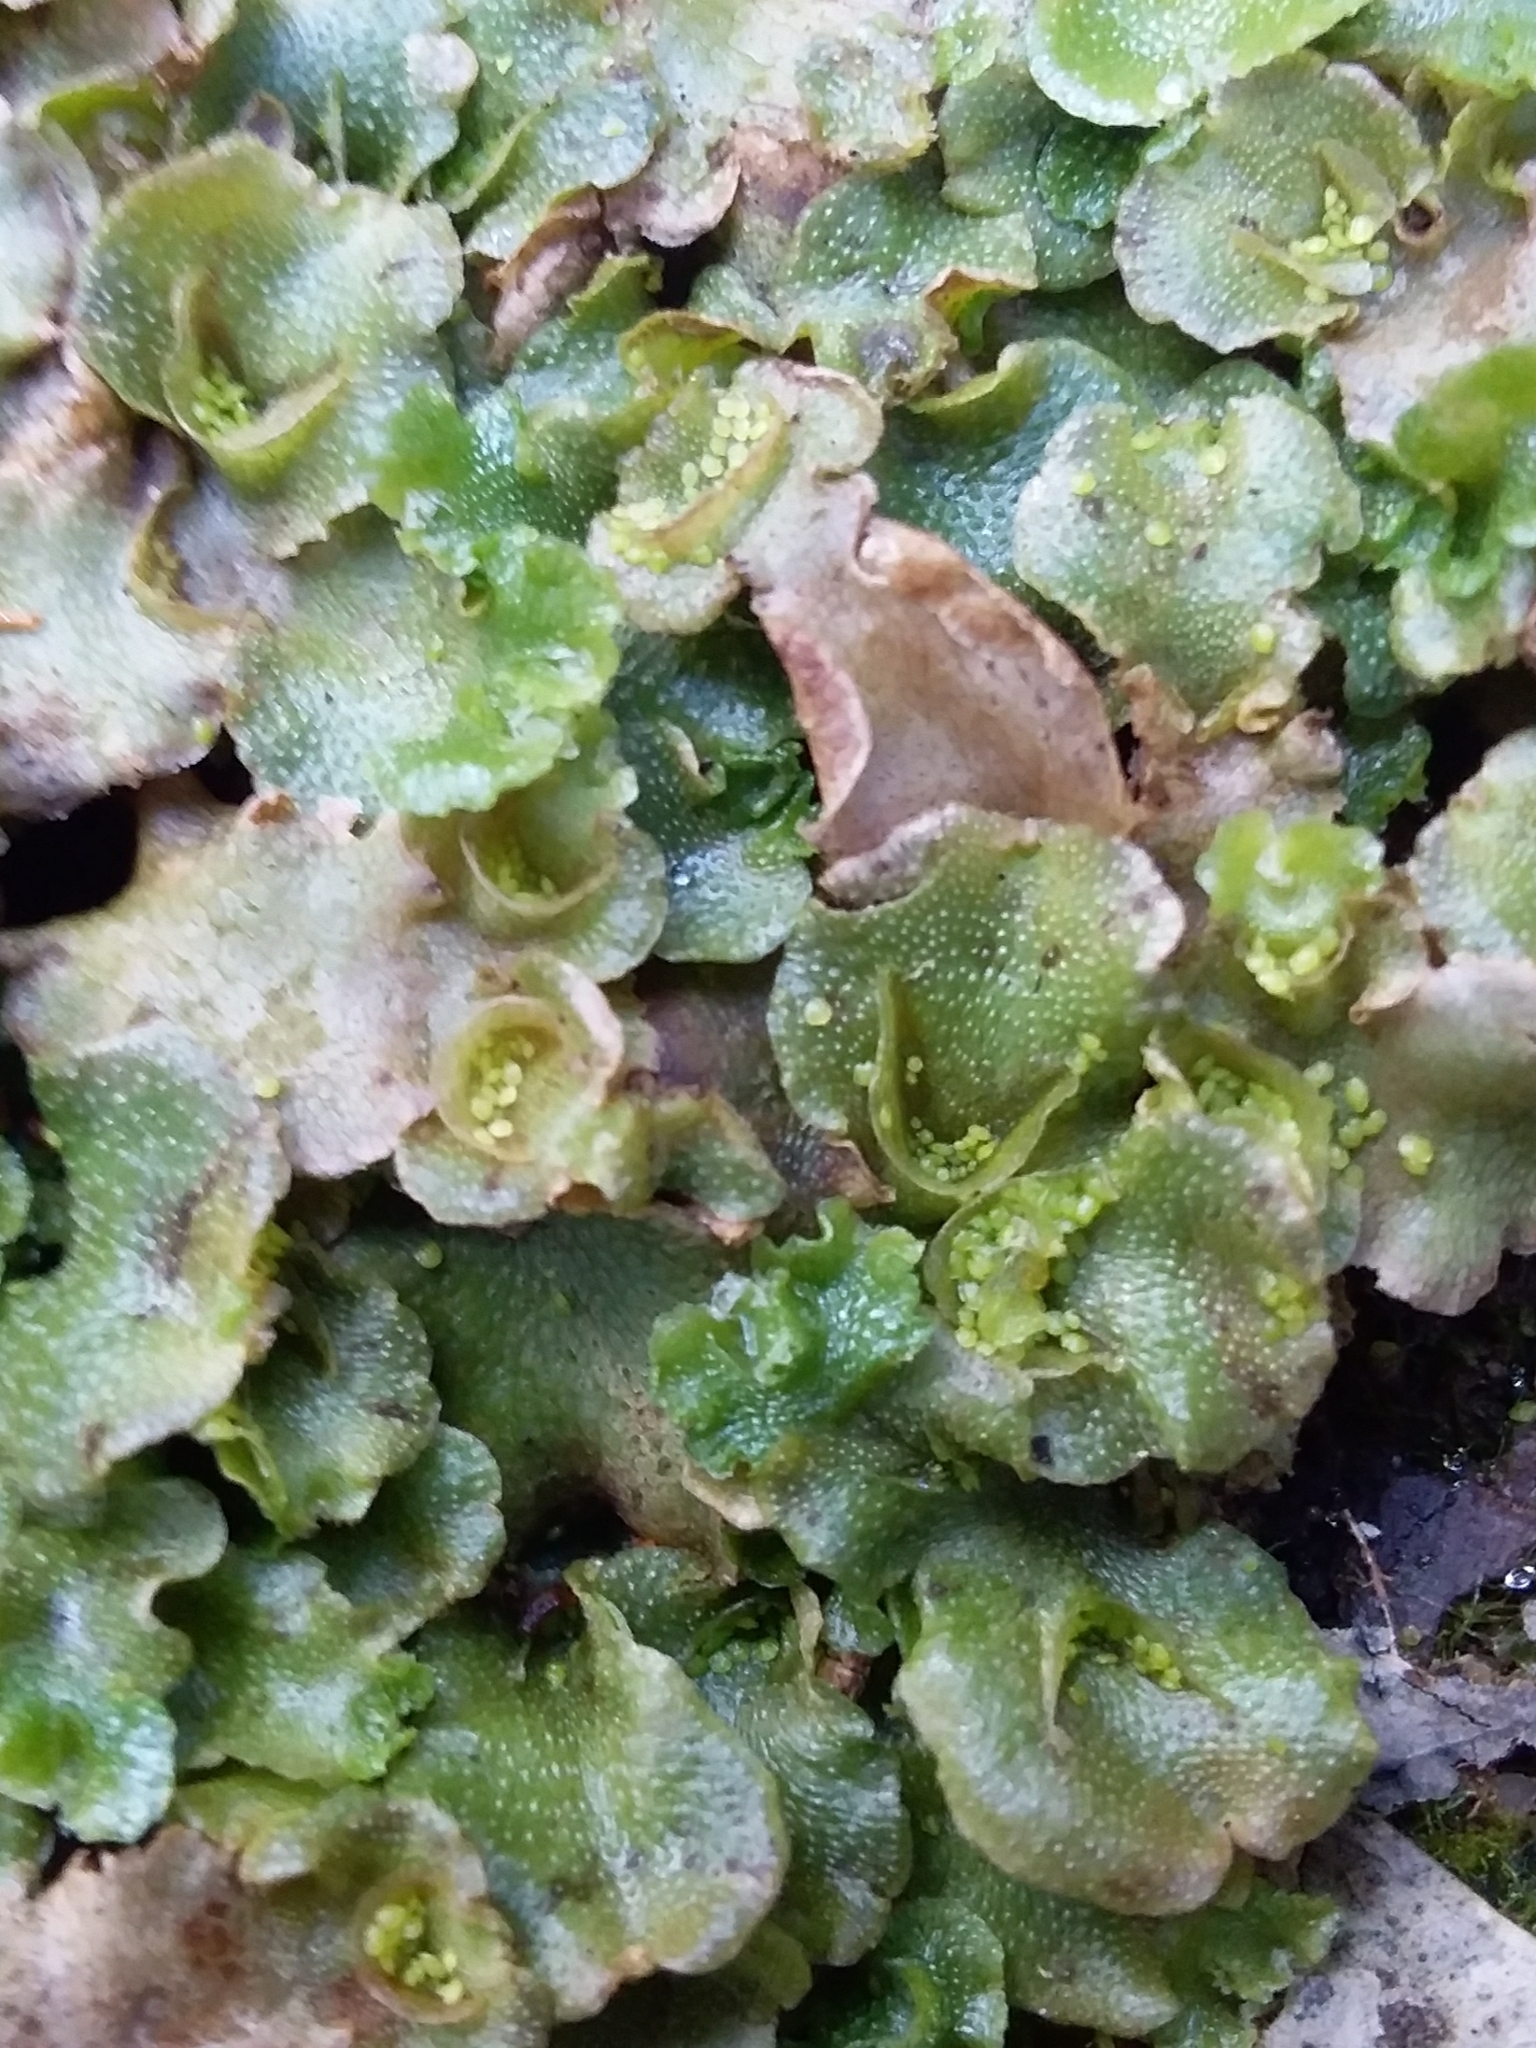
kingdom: Plantae
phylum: Marchantiophyta
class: Marchantiopsida
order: Lunulariales
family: Lunulariaceae
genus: Lunularia
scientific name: Lunularia cruciata
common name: Crescent-cup liverwort
